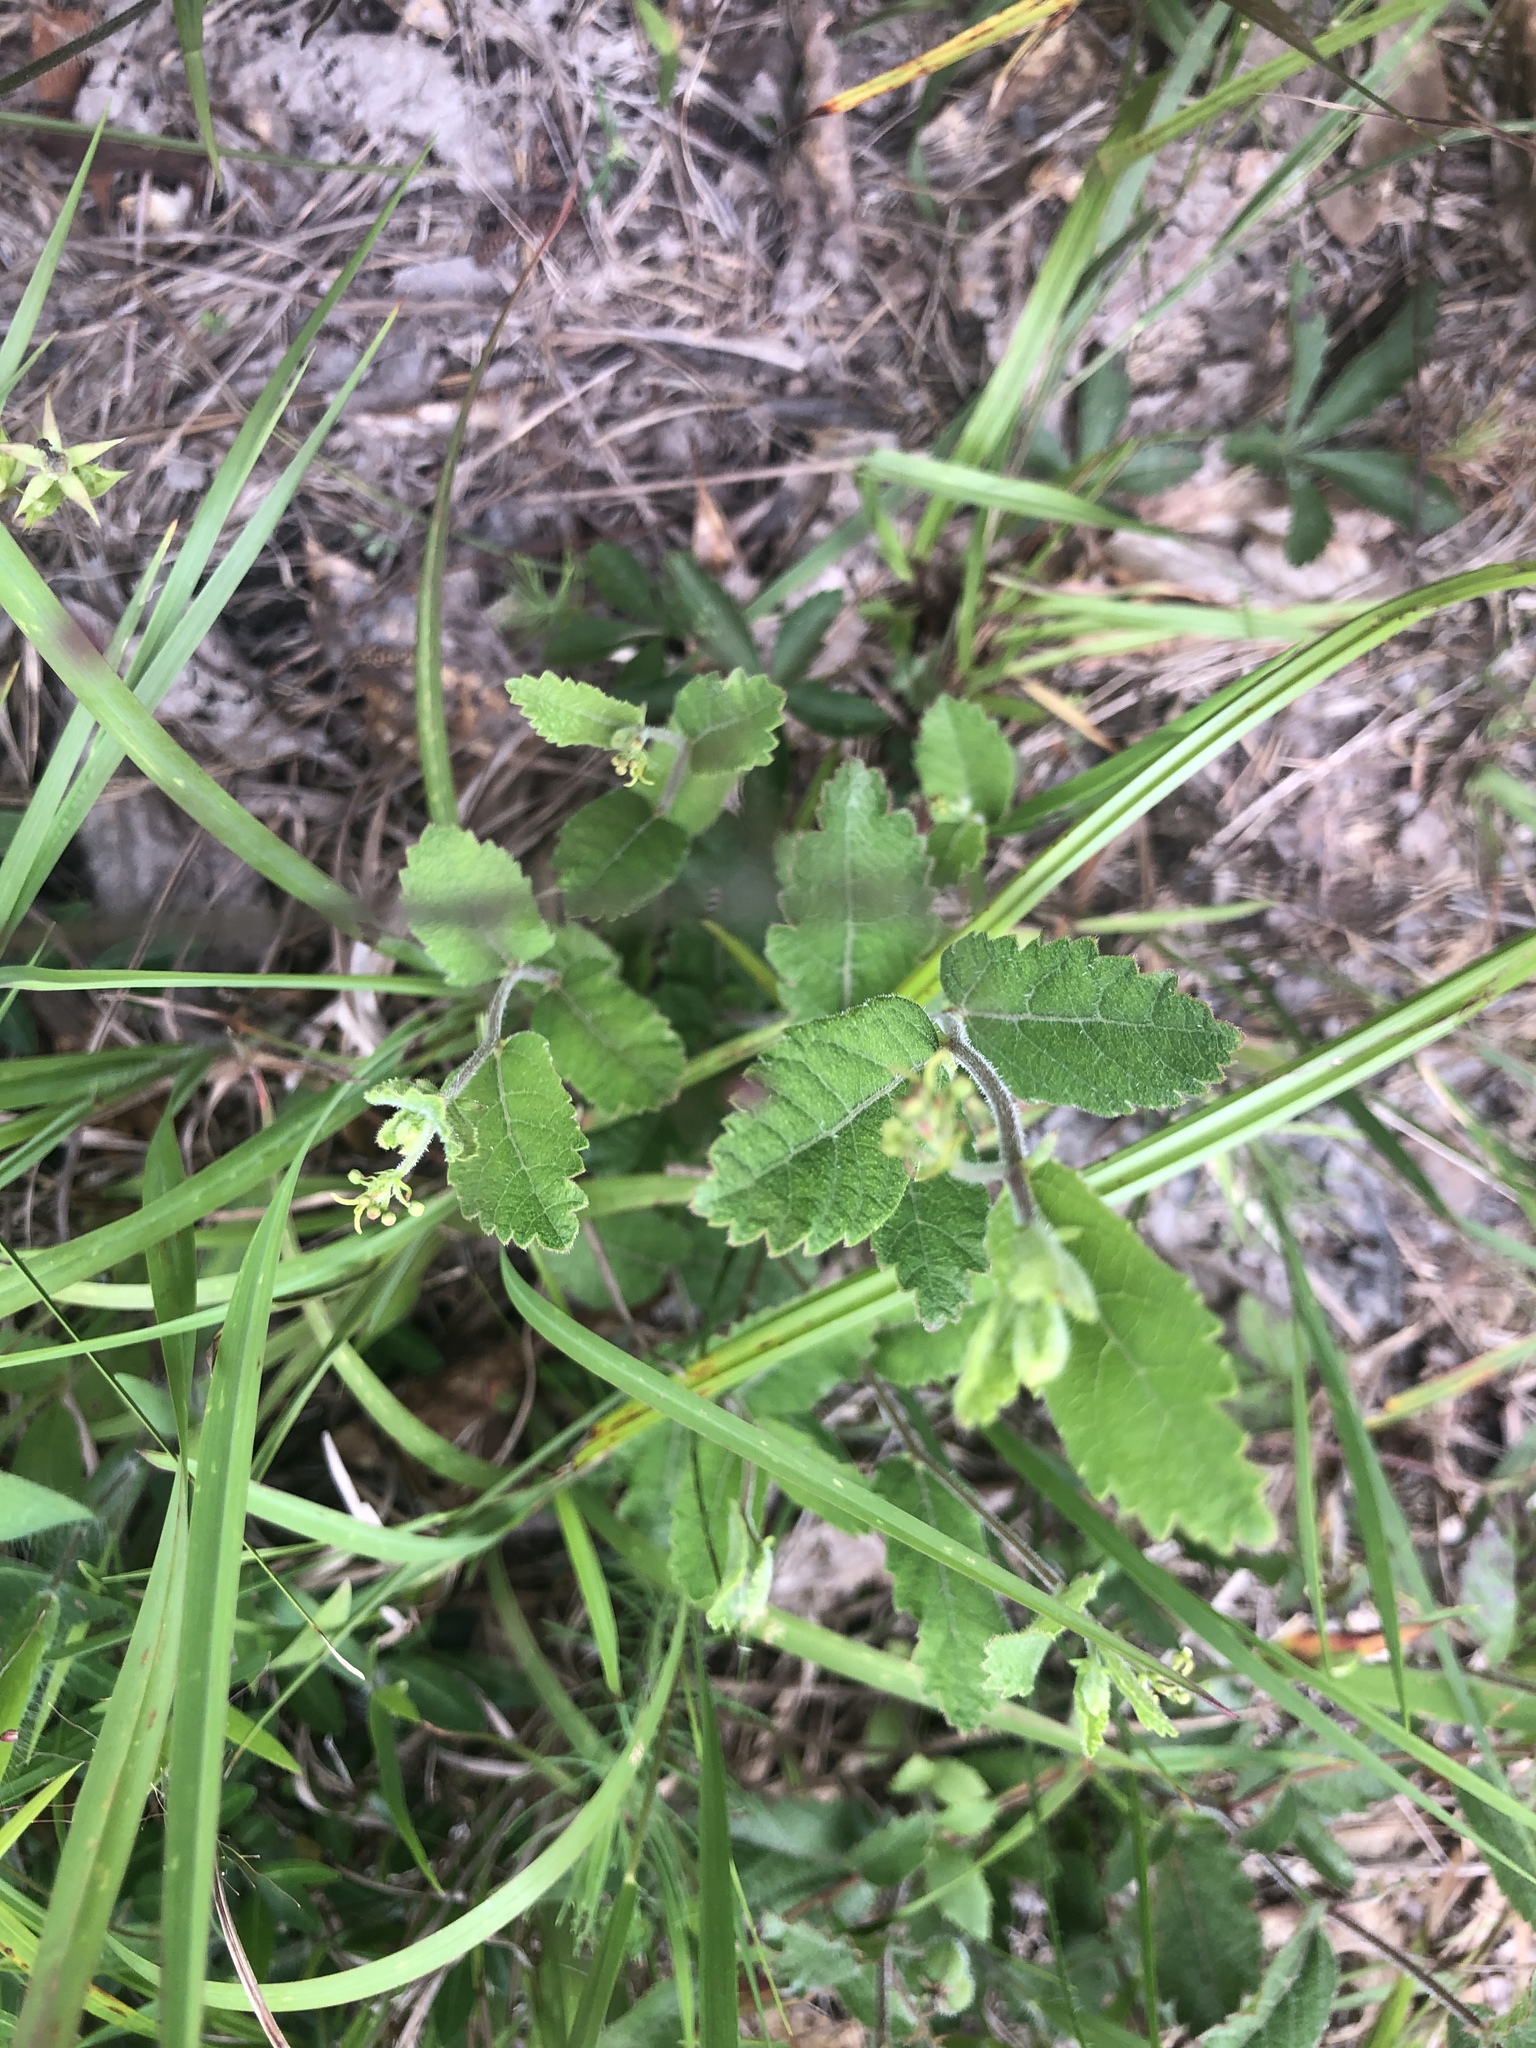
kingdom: Plantae
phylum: Tracheophyta
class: Magnoliopsida
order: Malpighiales
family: Euphorbiaceae
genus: Tragia
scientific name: Tragia smallii
